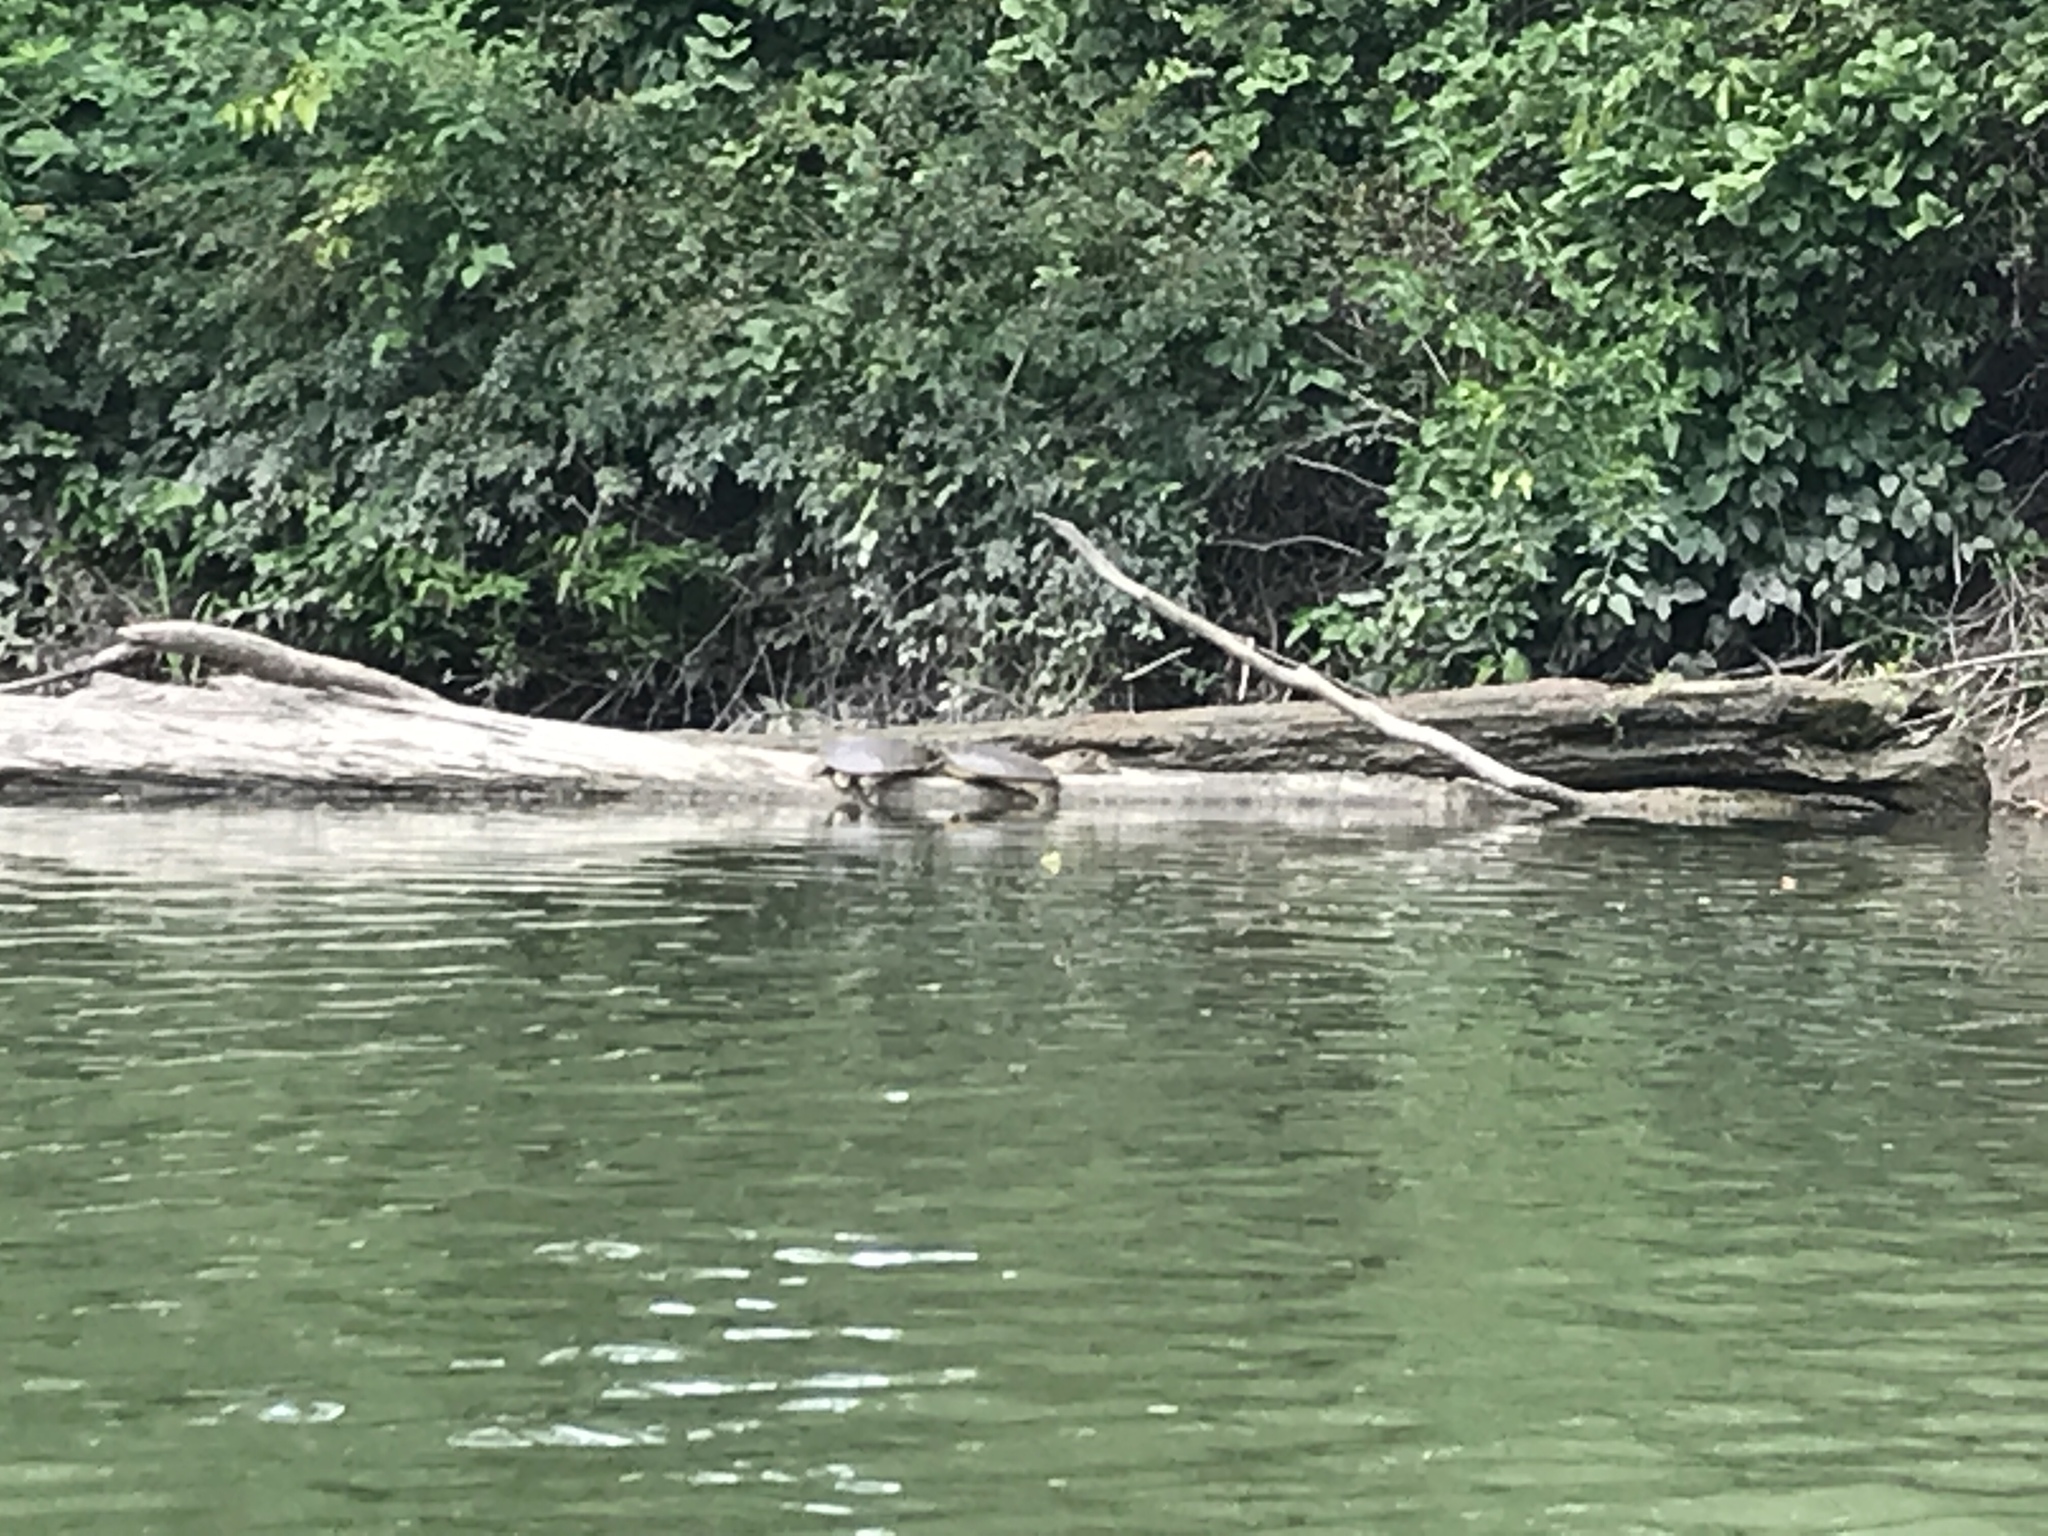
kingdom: Animalia
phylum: Chordata
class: Testudines
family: Trionychidae
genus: Apalone
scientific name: Apalone spinifera
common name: Spiny softshell turtle
